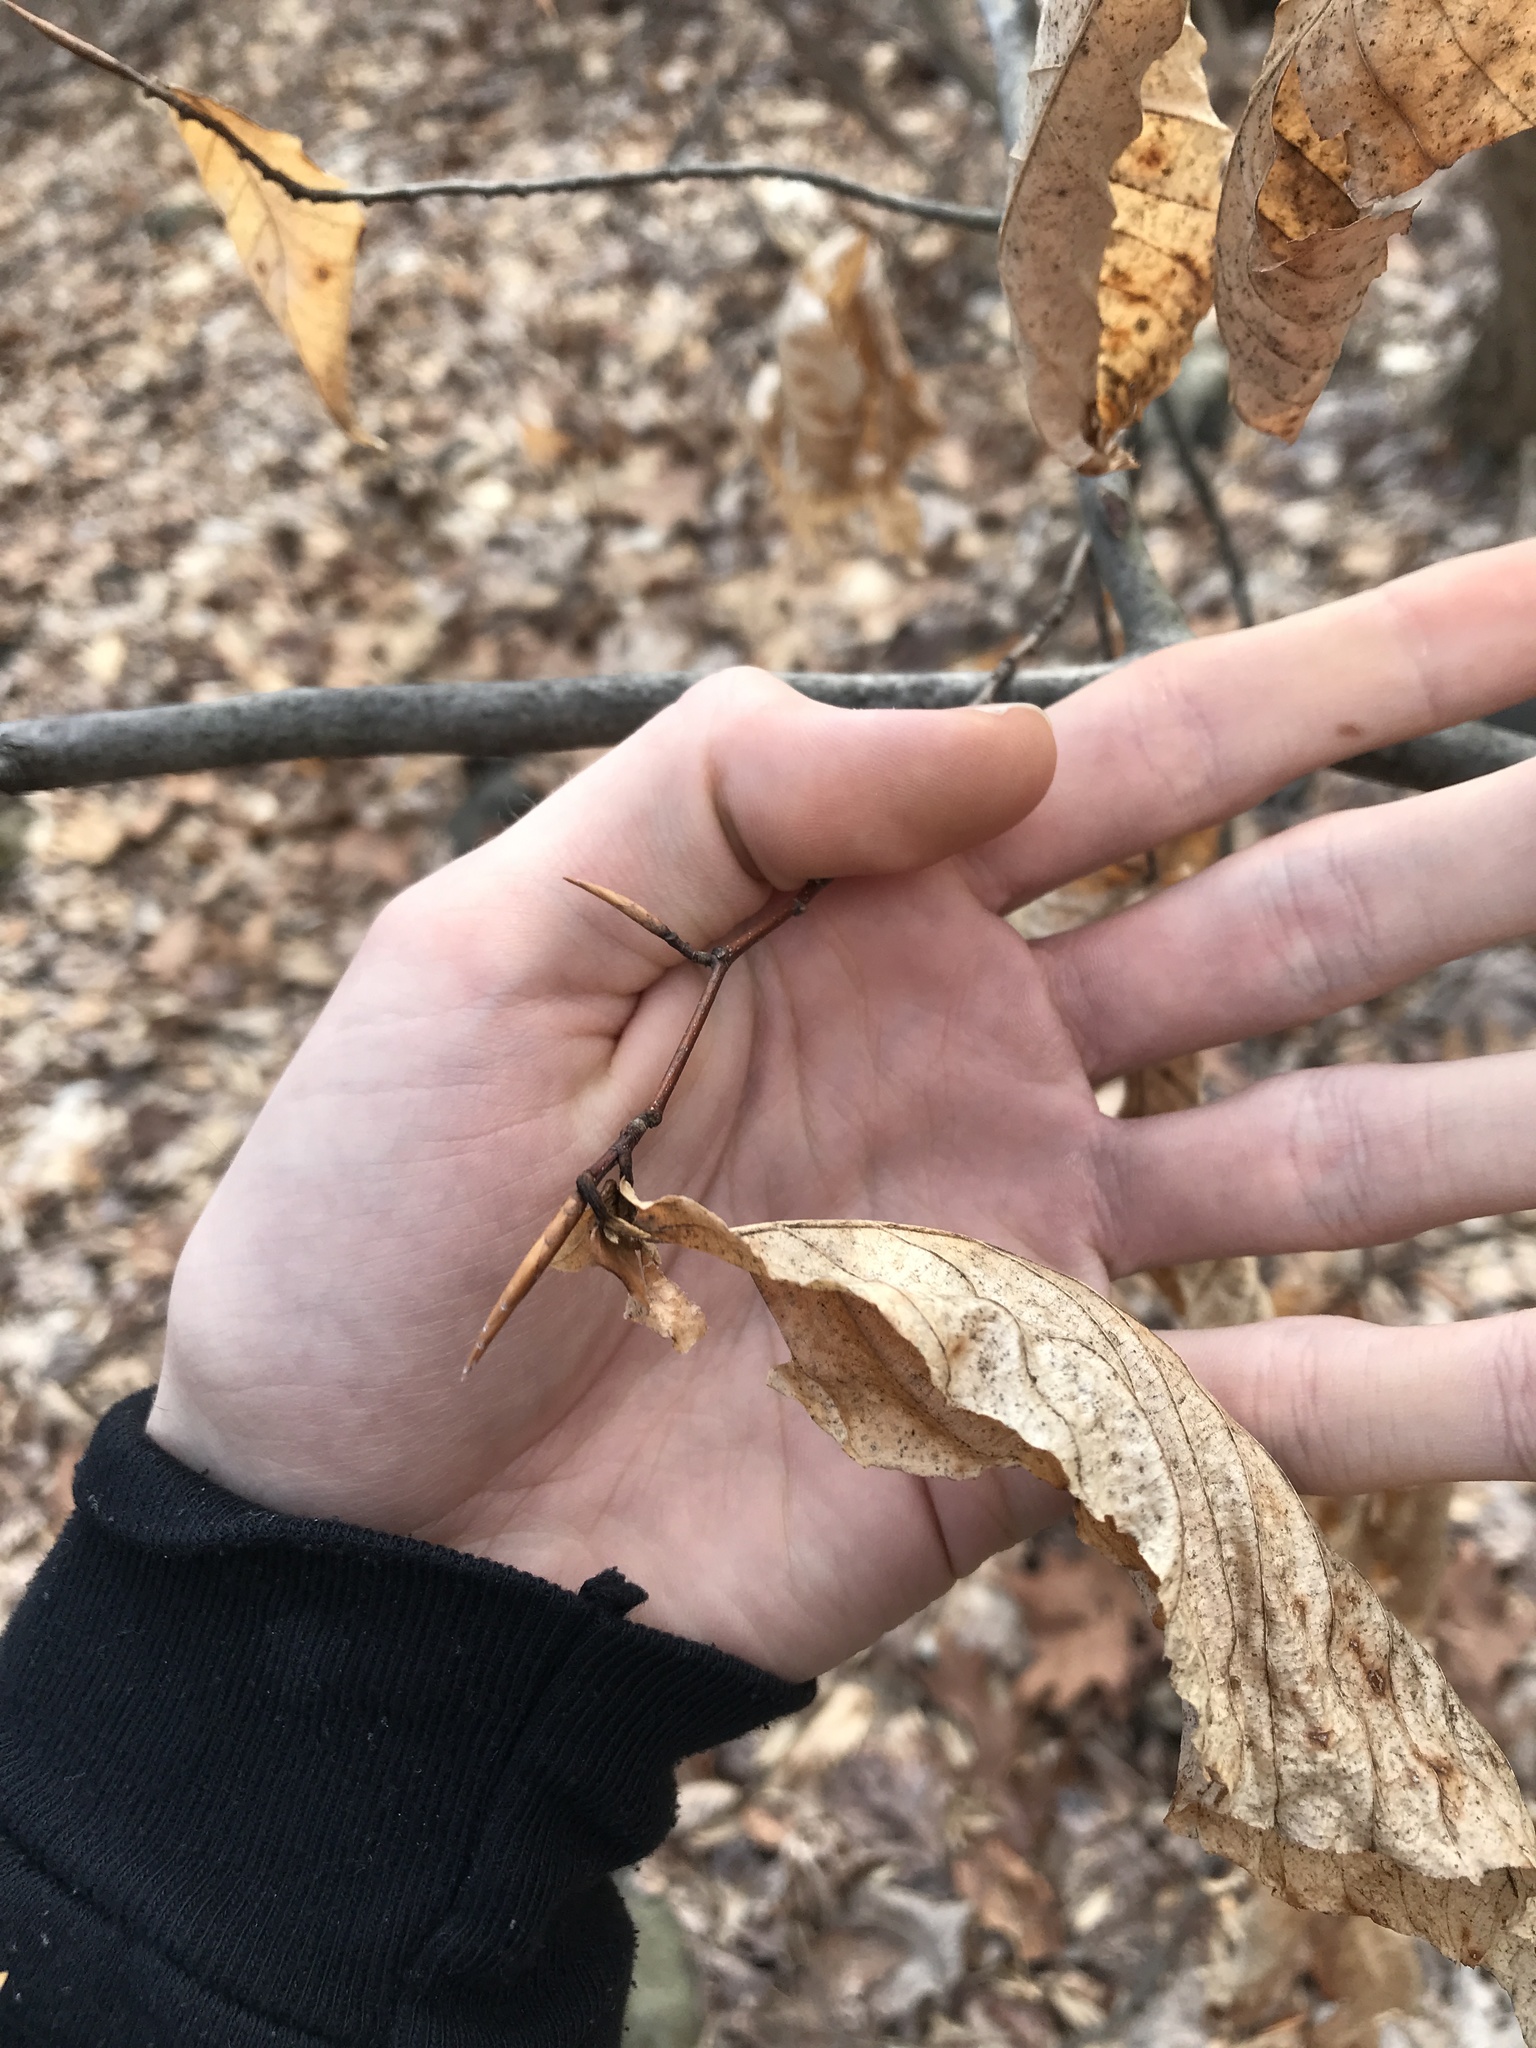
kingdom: Plantae
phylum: Tracheophyta
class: Magnoliopsida
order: Fagales
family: Fagaceae
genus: Fagus
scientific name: Fagus grandifolia
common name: American beech
